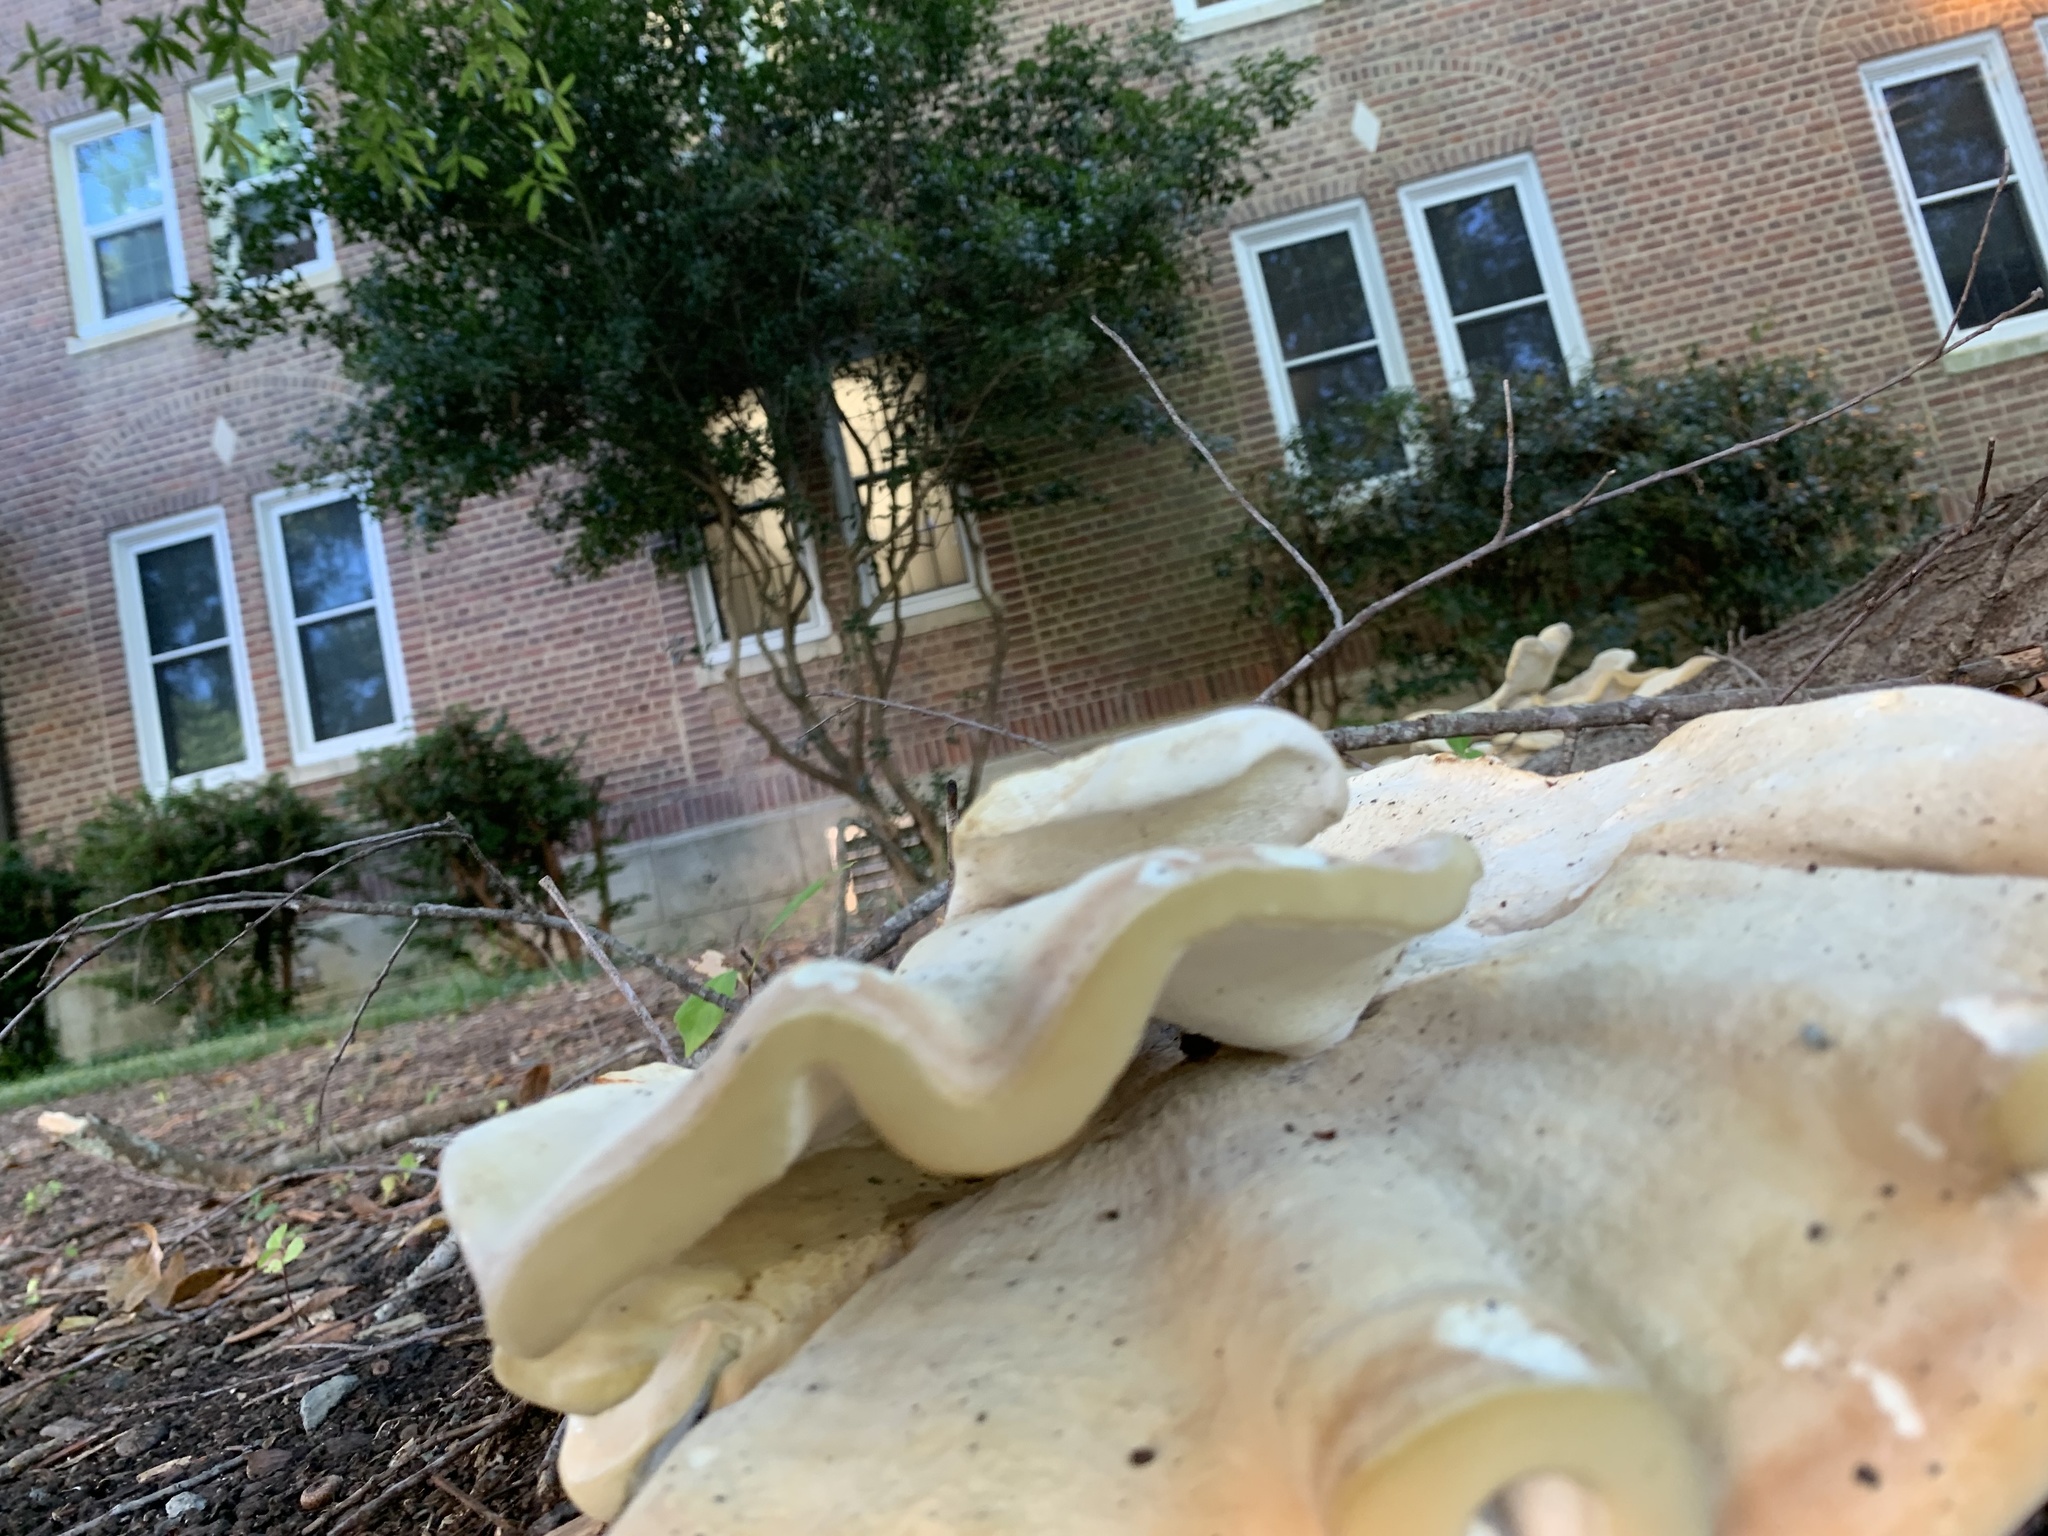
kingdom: Fungi
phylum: Basidiomycota
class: Agaricomycetes
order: Russulales
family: Bondarzewiaceae
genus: Bondarzewia
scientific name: Bondarzewia berkeleyi
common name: Berkeley's polypore
